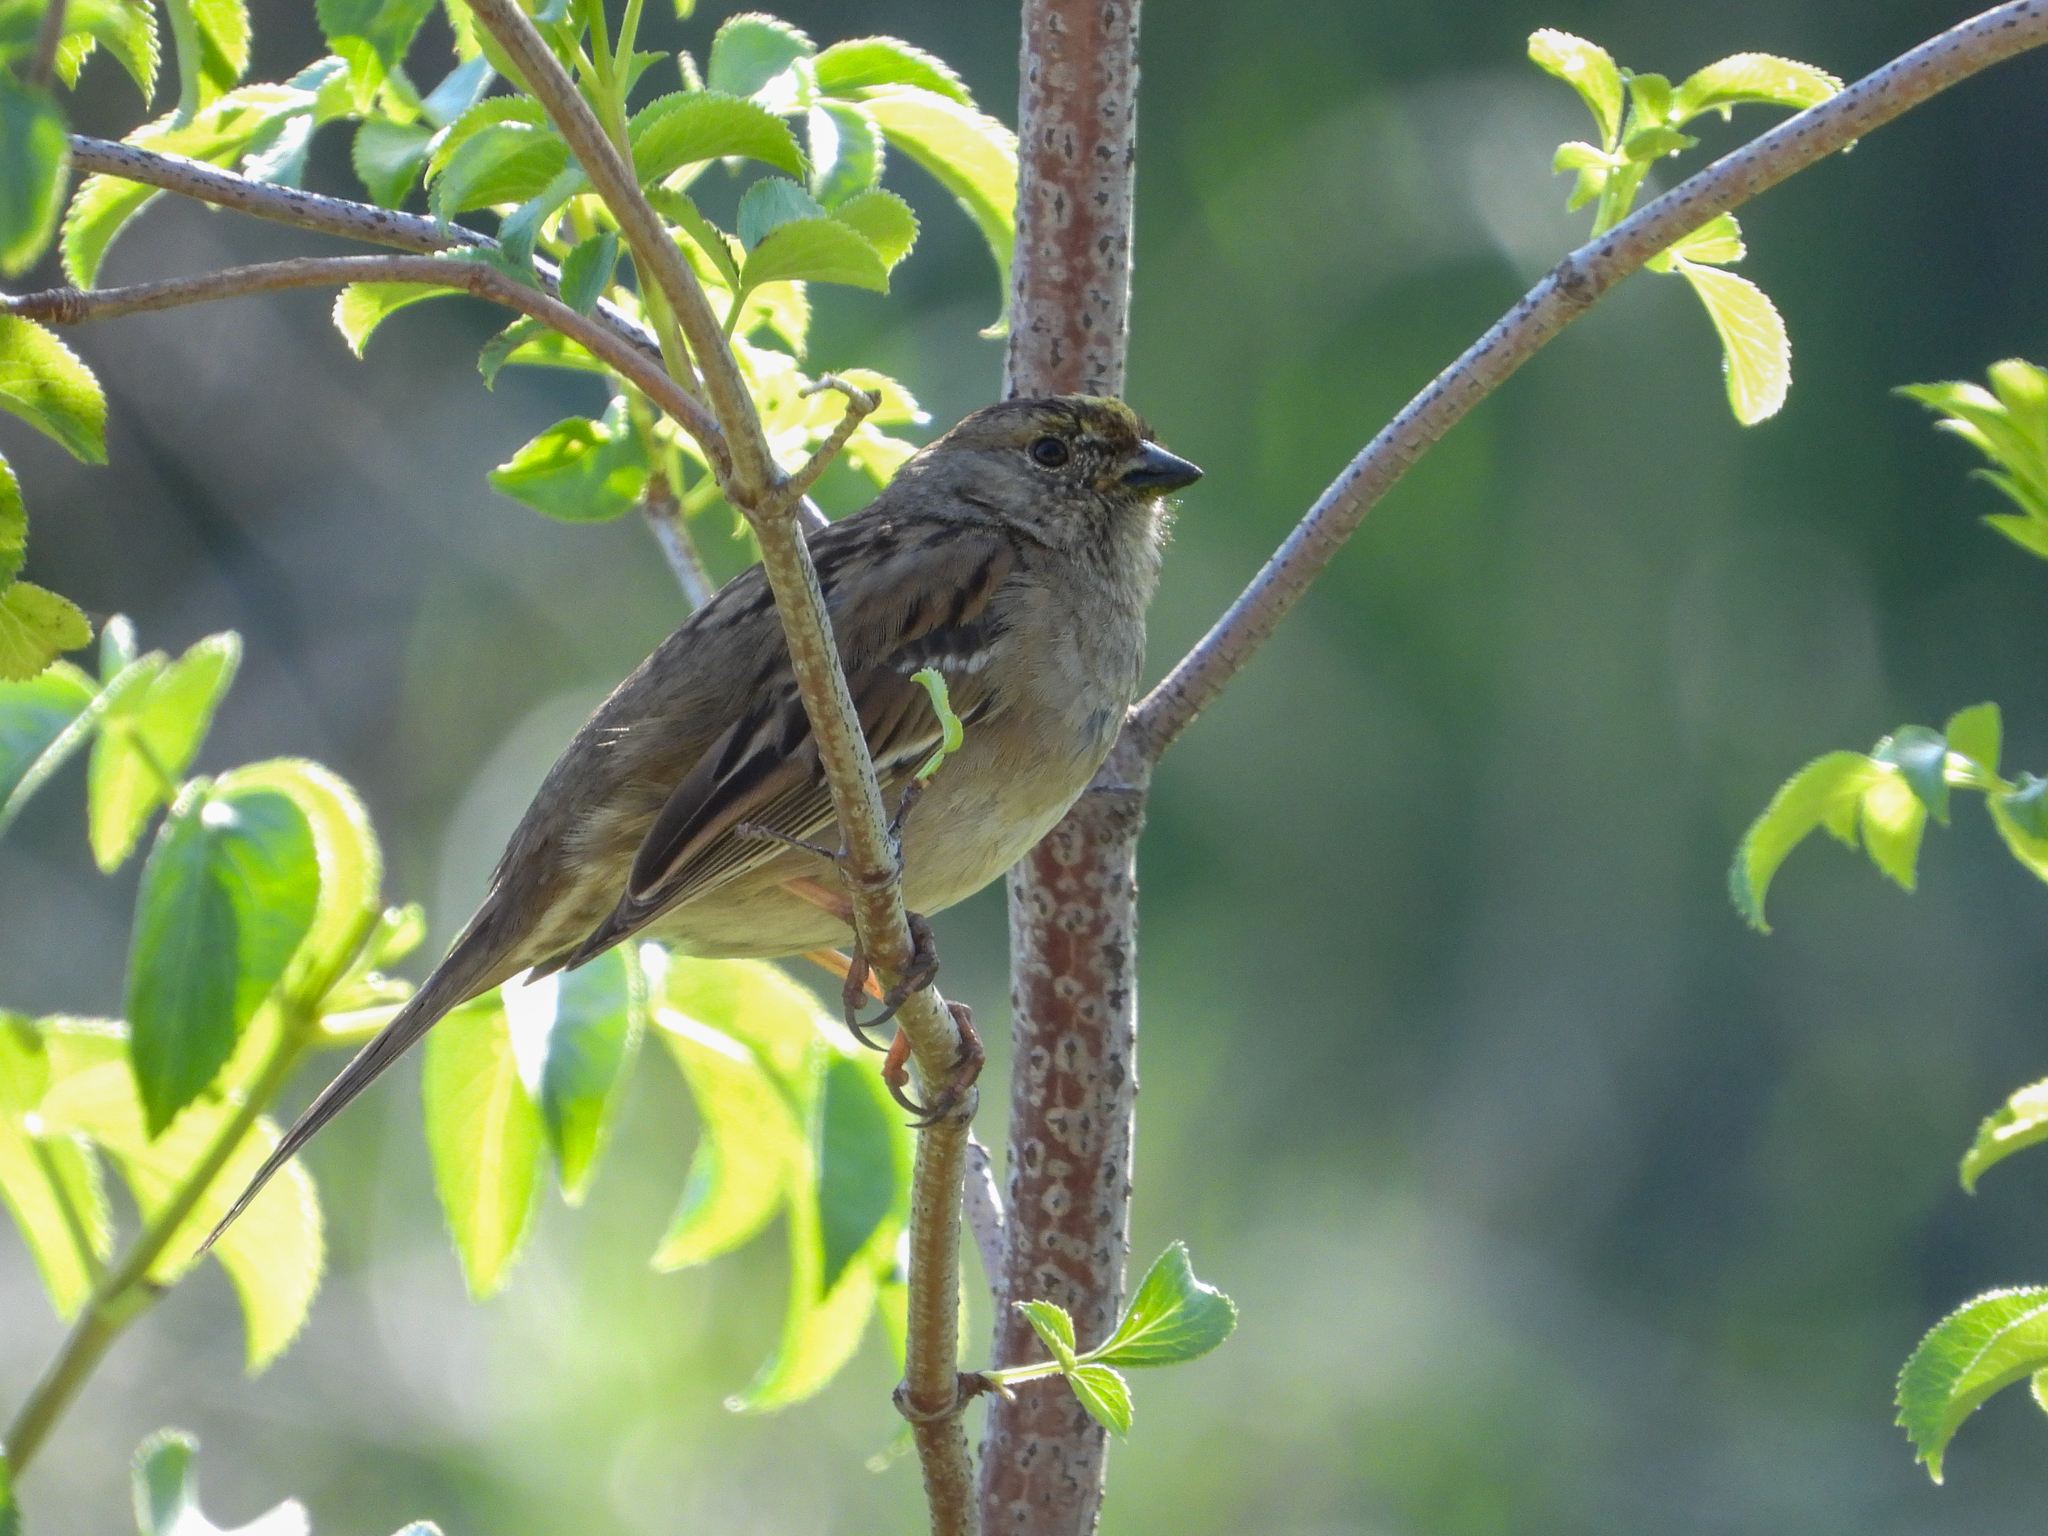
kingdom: Animalia
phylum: Chordata
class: Aves
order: Passeriformes
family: Passerellidae
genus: Zonotrichia
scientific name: Zonotrichia atricapilla
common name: Golden-crowned sparrow
